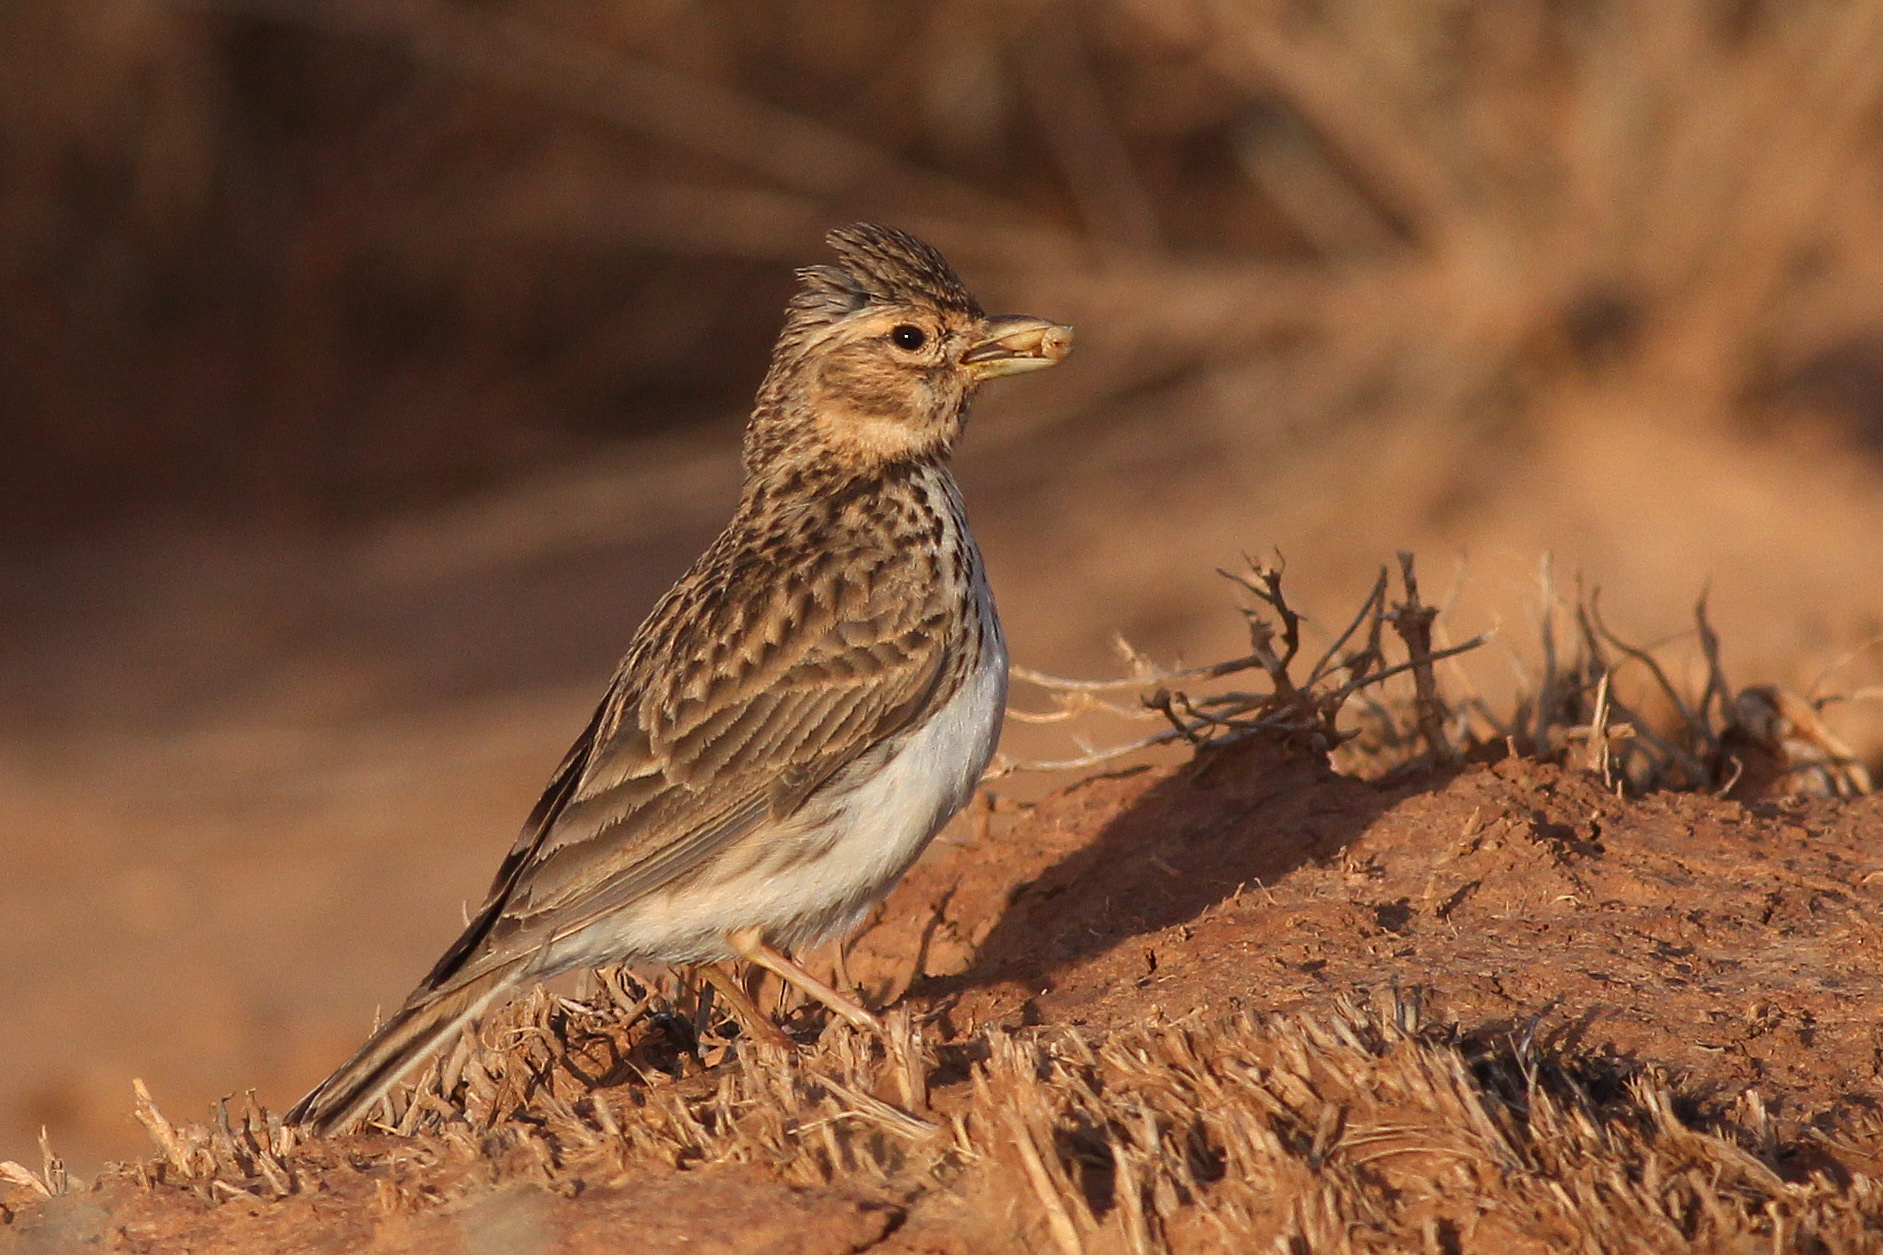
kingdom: Animalia
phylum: Chordata
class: Aves
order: Passeriformes
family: Alaudidae
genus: Calandrella
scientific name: Calandrella rufescens
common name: Lesser short-toed lark
